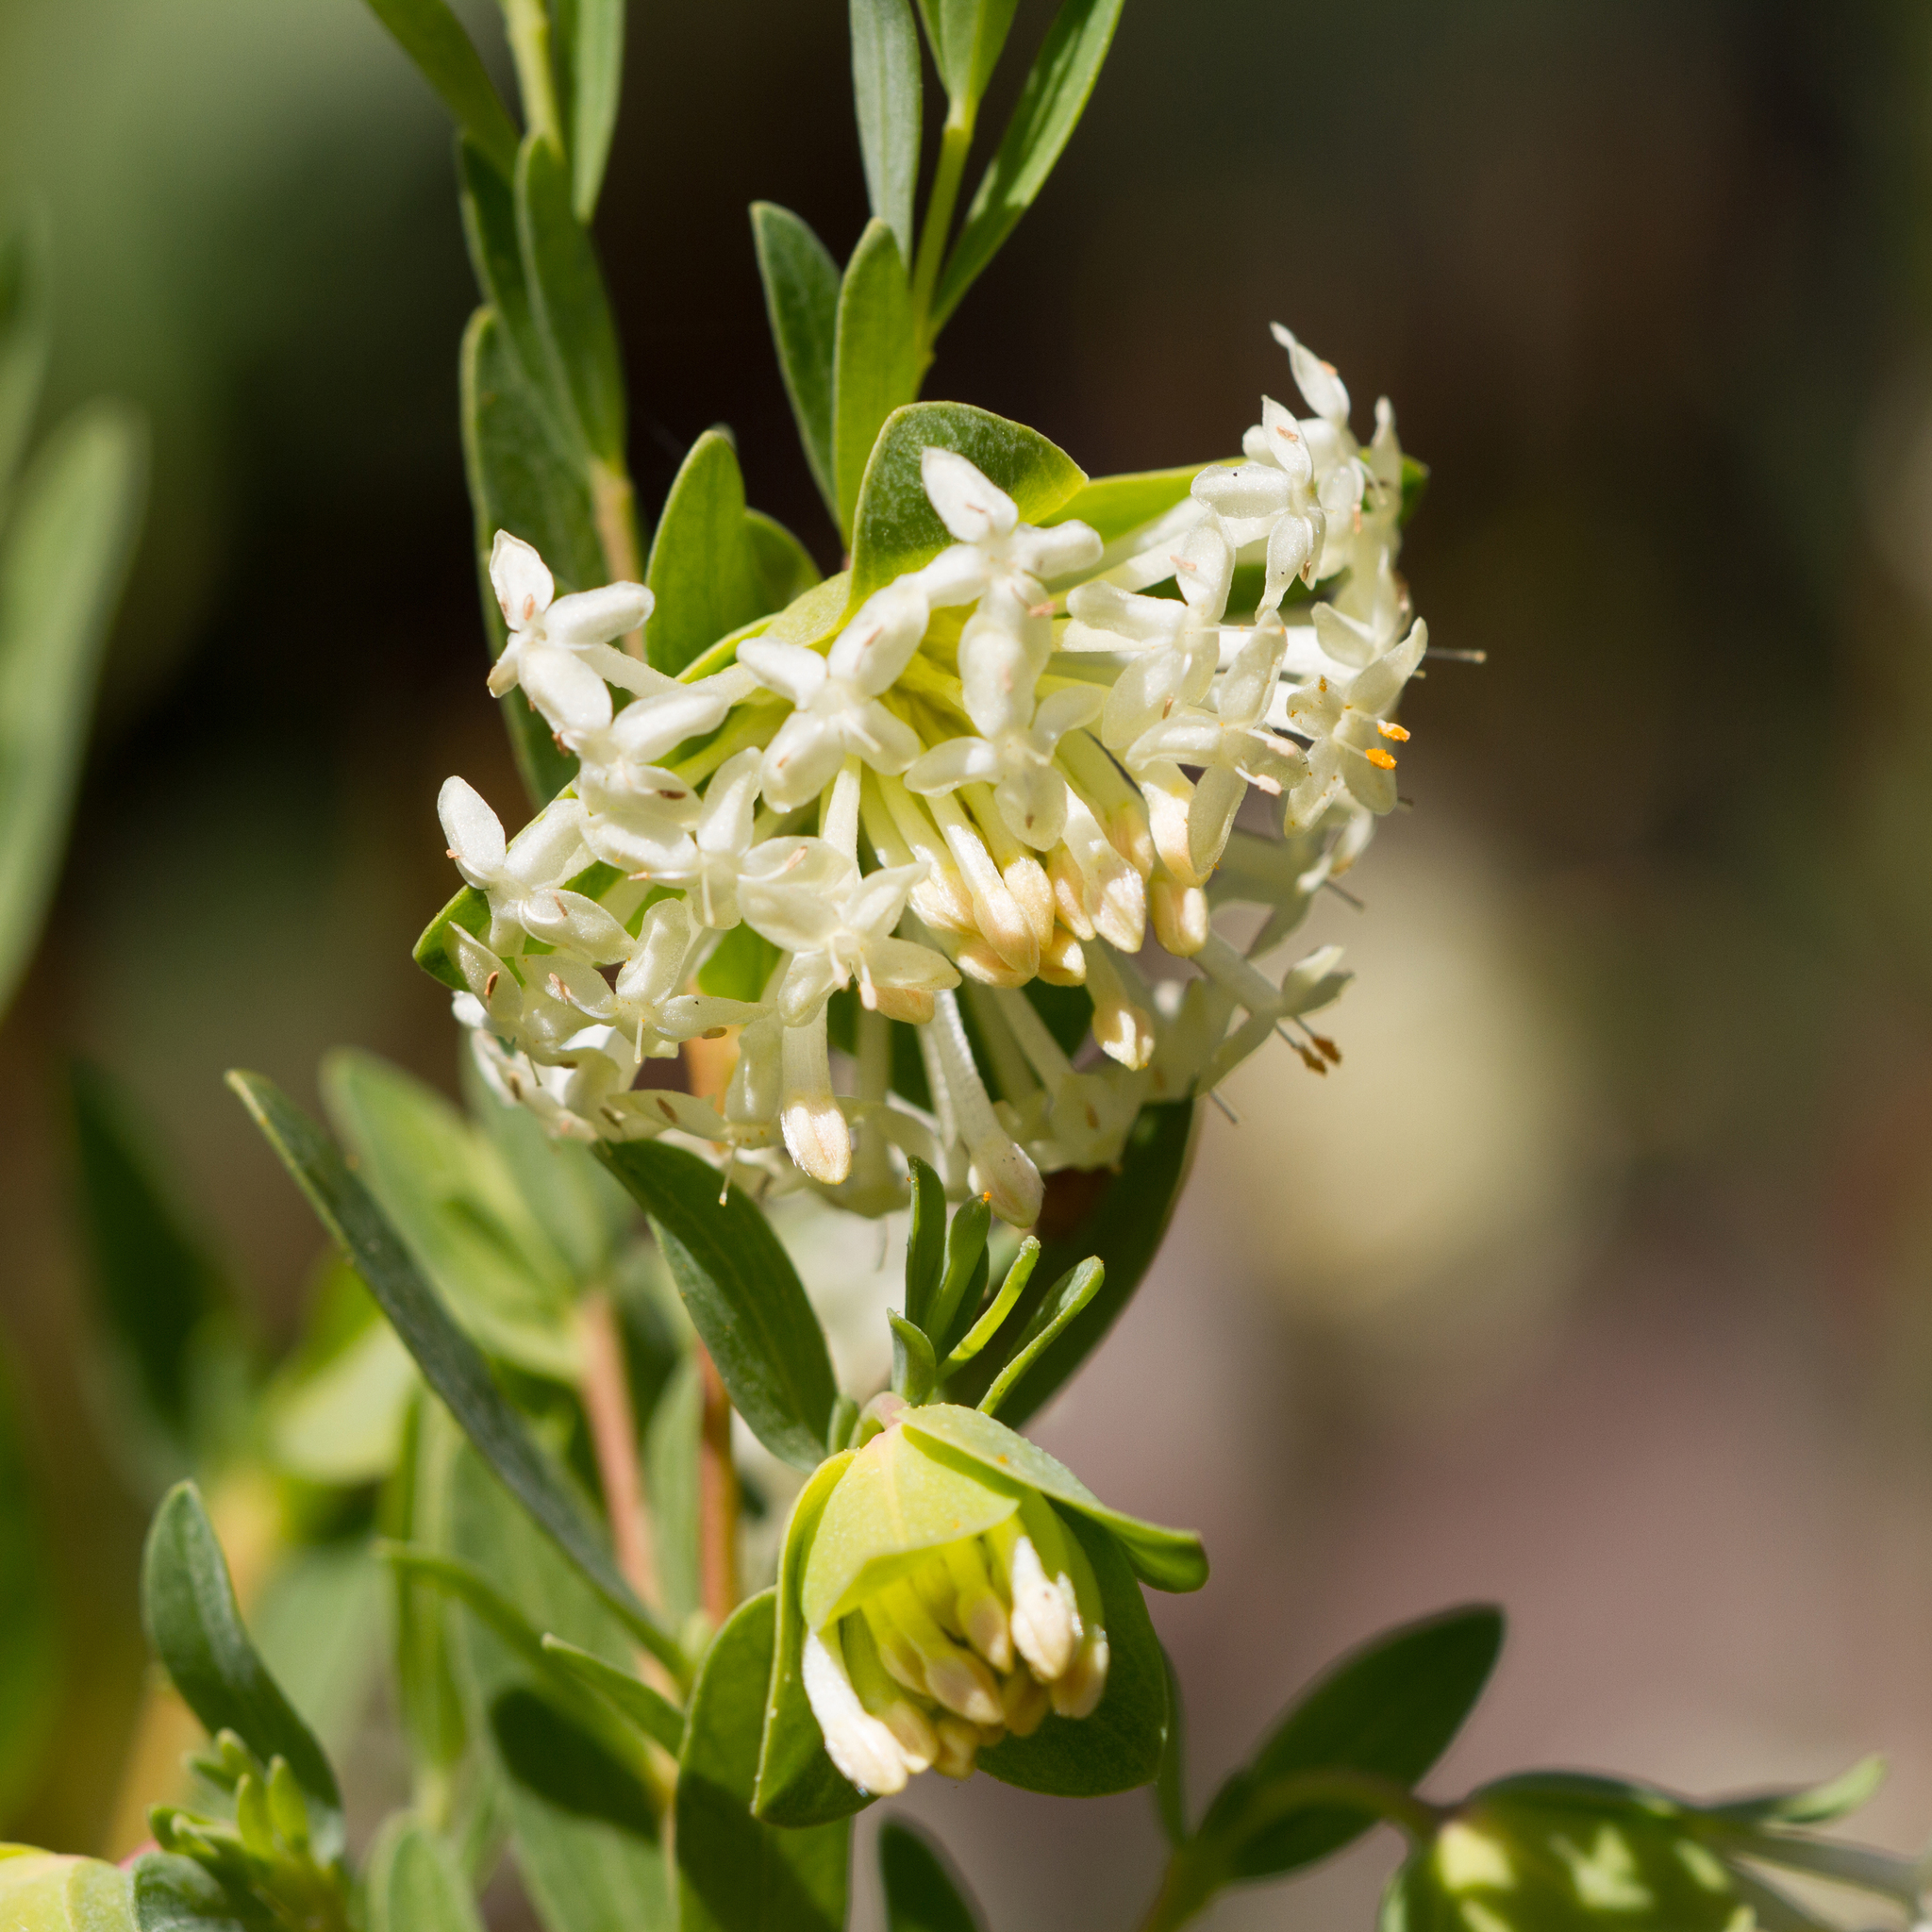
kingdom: Plantae
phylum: Tracheophyta
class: Magnoliopsida
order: Malvales
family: Thymelaeaceae
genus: Pimelea
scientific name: Pimelea linifolia
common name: Queen-of-the-bush
